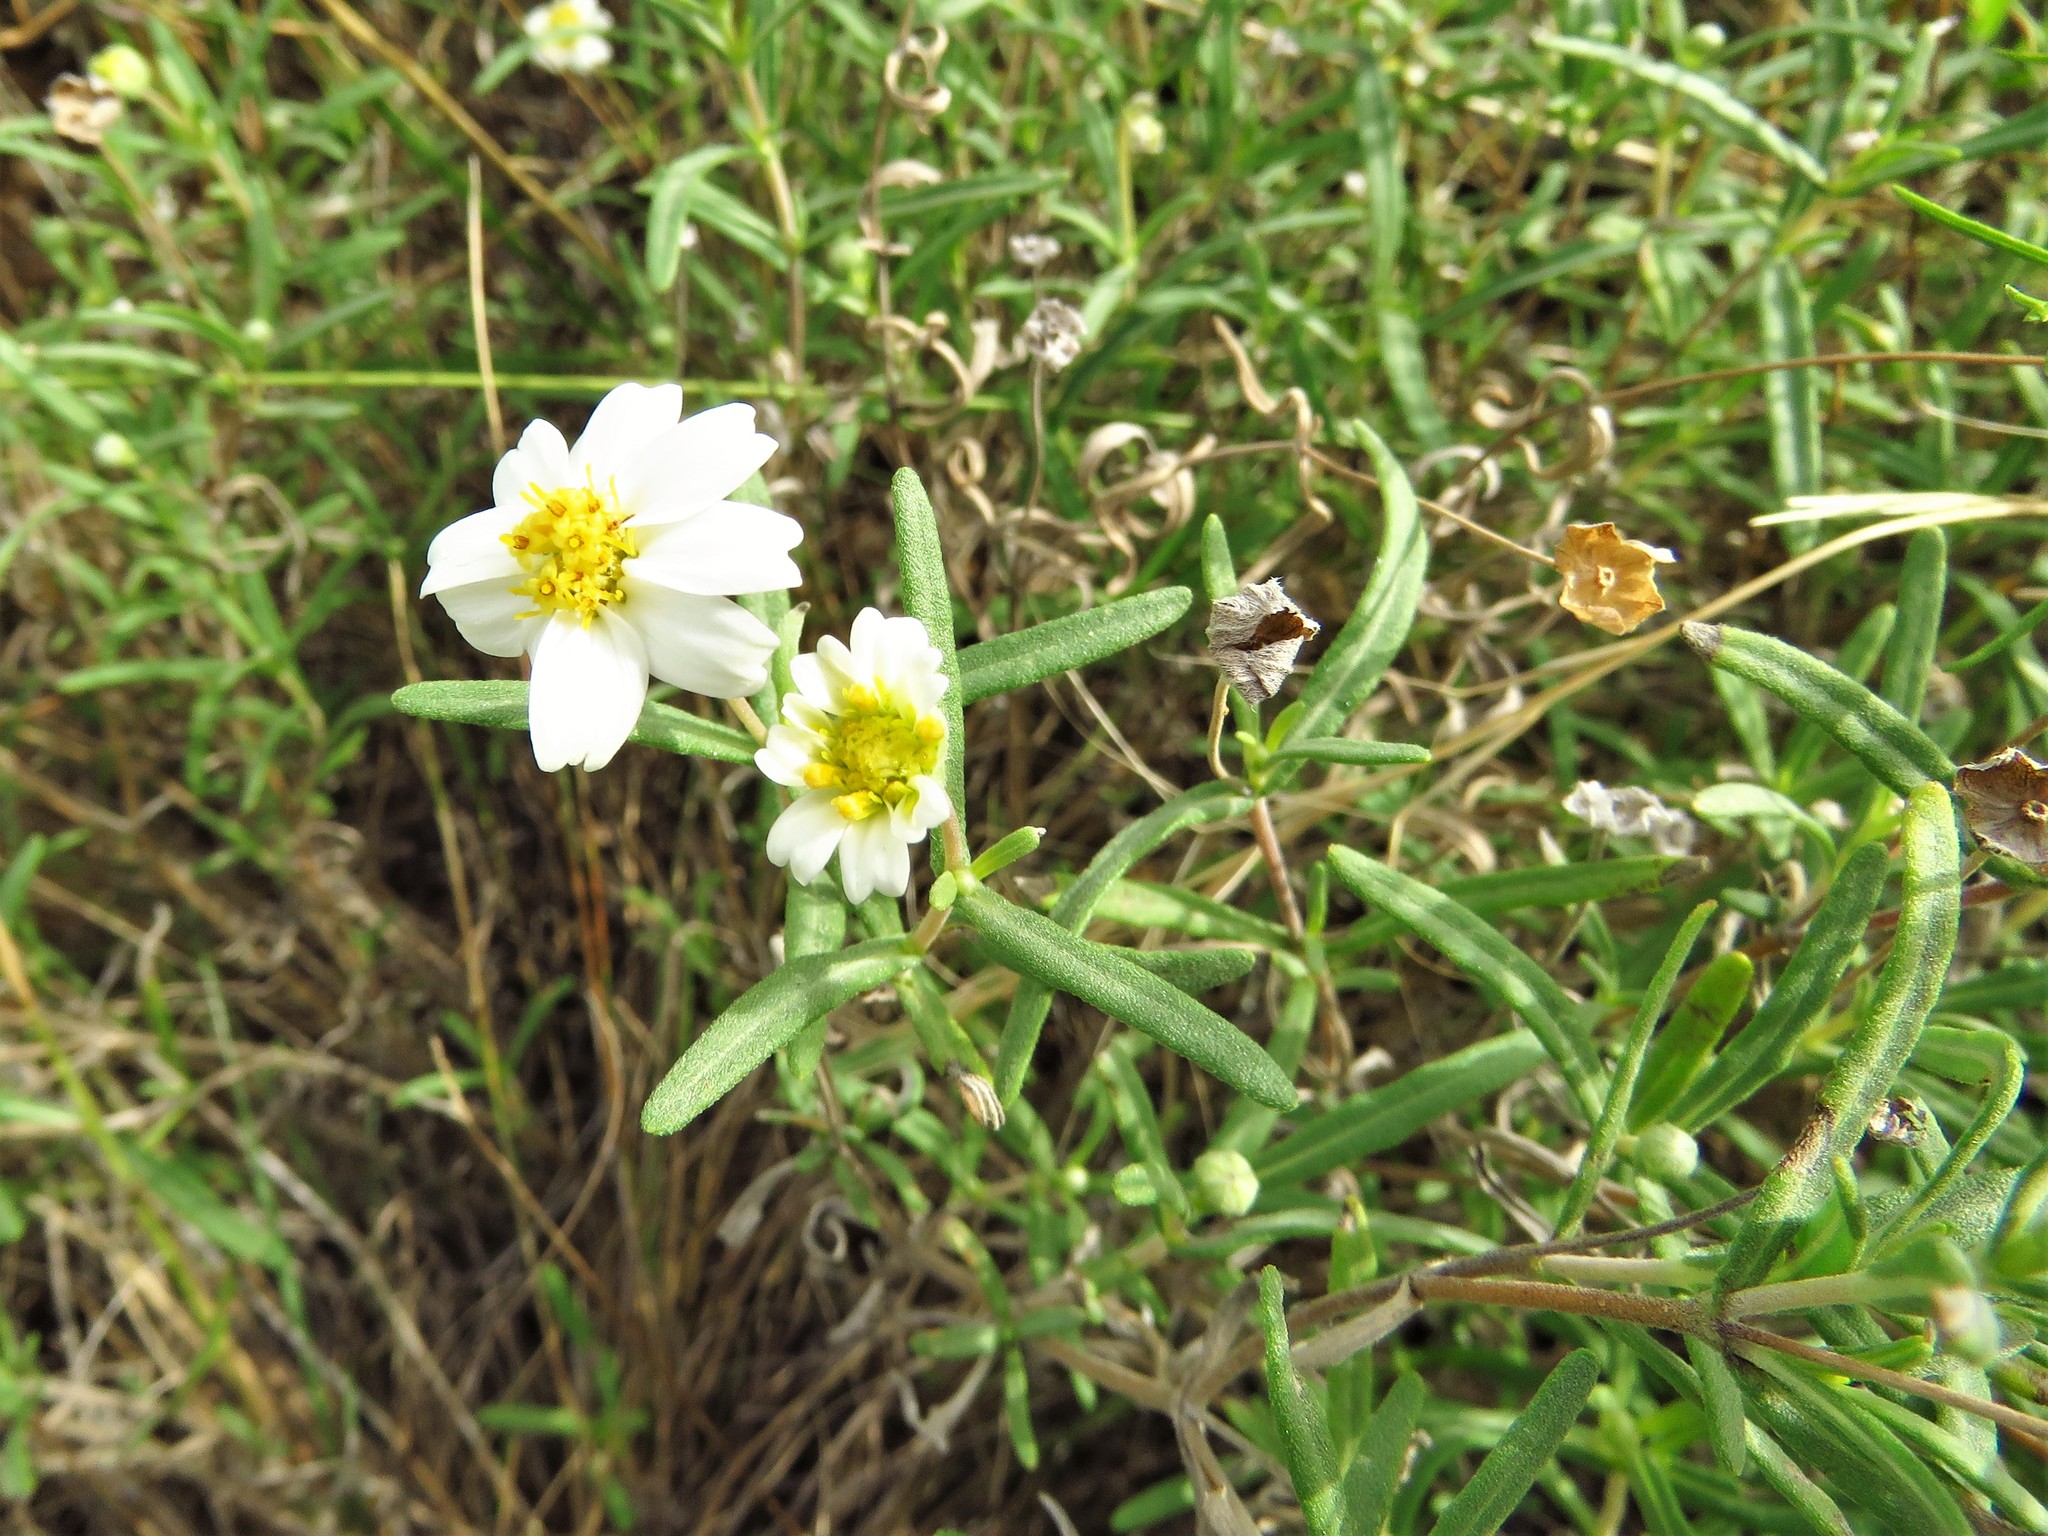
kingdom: Plantae
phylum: Tracheophyta
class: Magnoliopsida
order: Asterales
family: Asteraceae
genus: Melampodium
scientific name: Melampodium leucanthum
